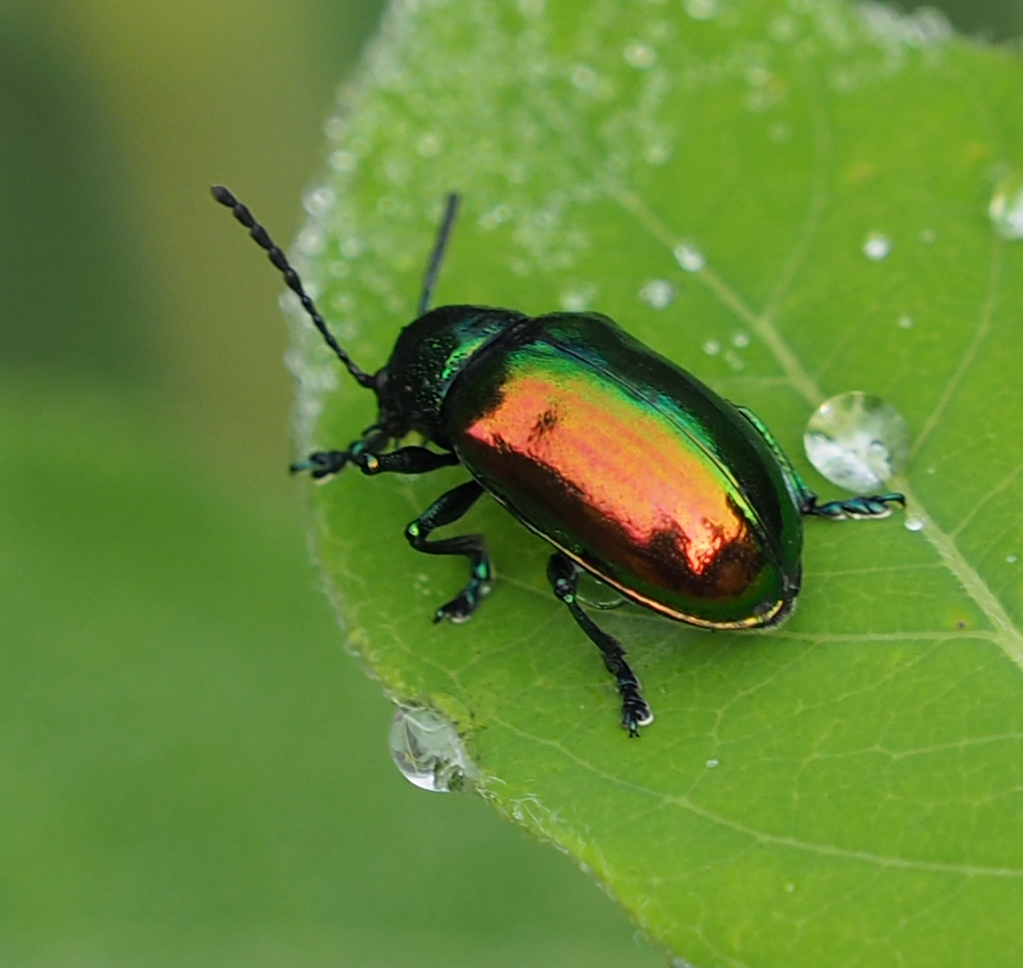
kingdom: Animalia
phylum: Arthropoda
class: Insecta
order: Coleoptera
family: Chrysomelidae
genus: Chrysochus
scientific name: Chrysochus auratus
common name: Dogbane leaf beetle
